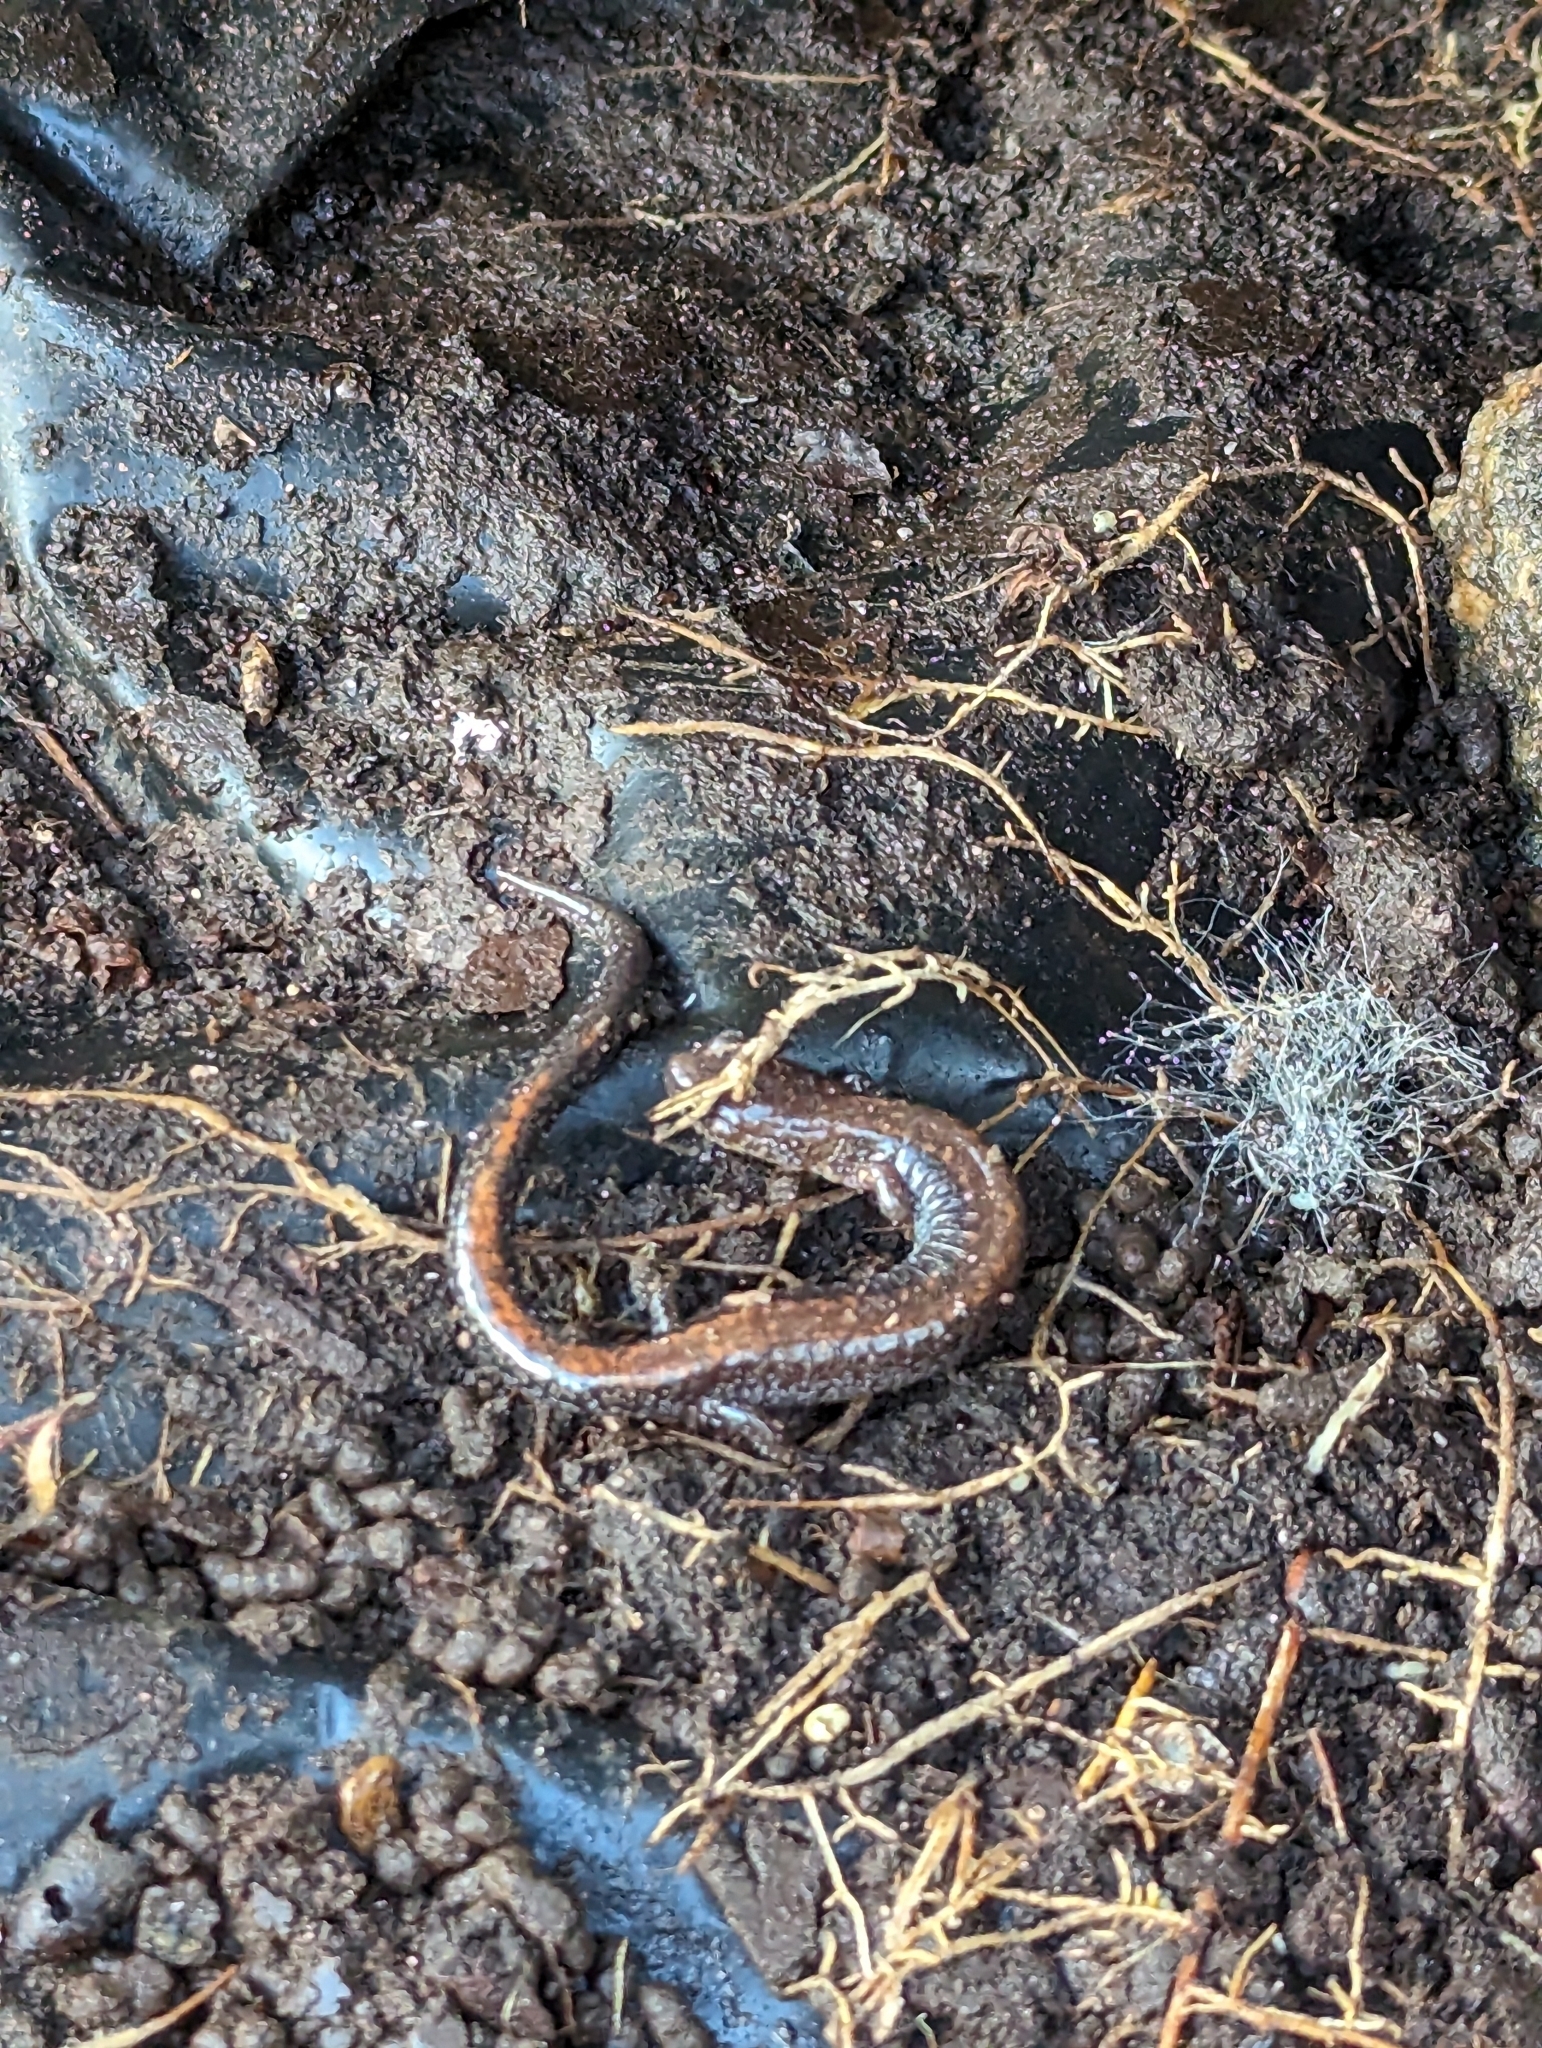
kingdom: Animalia
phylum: Chordata
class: Amphibia
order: Caudata
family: Plethodontidae
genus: Plethodon
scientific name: Plethodon cinereus
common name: Redback salamander
